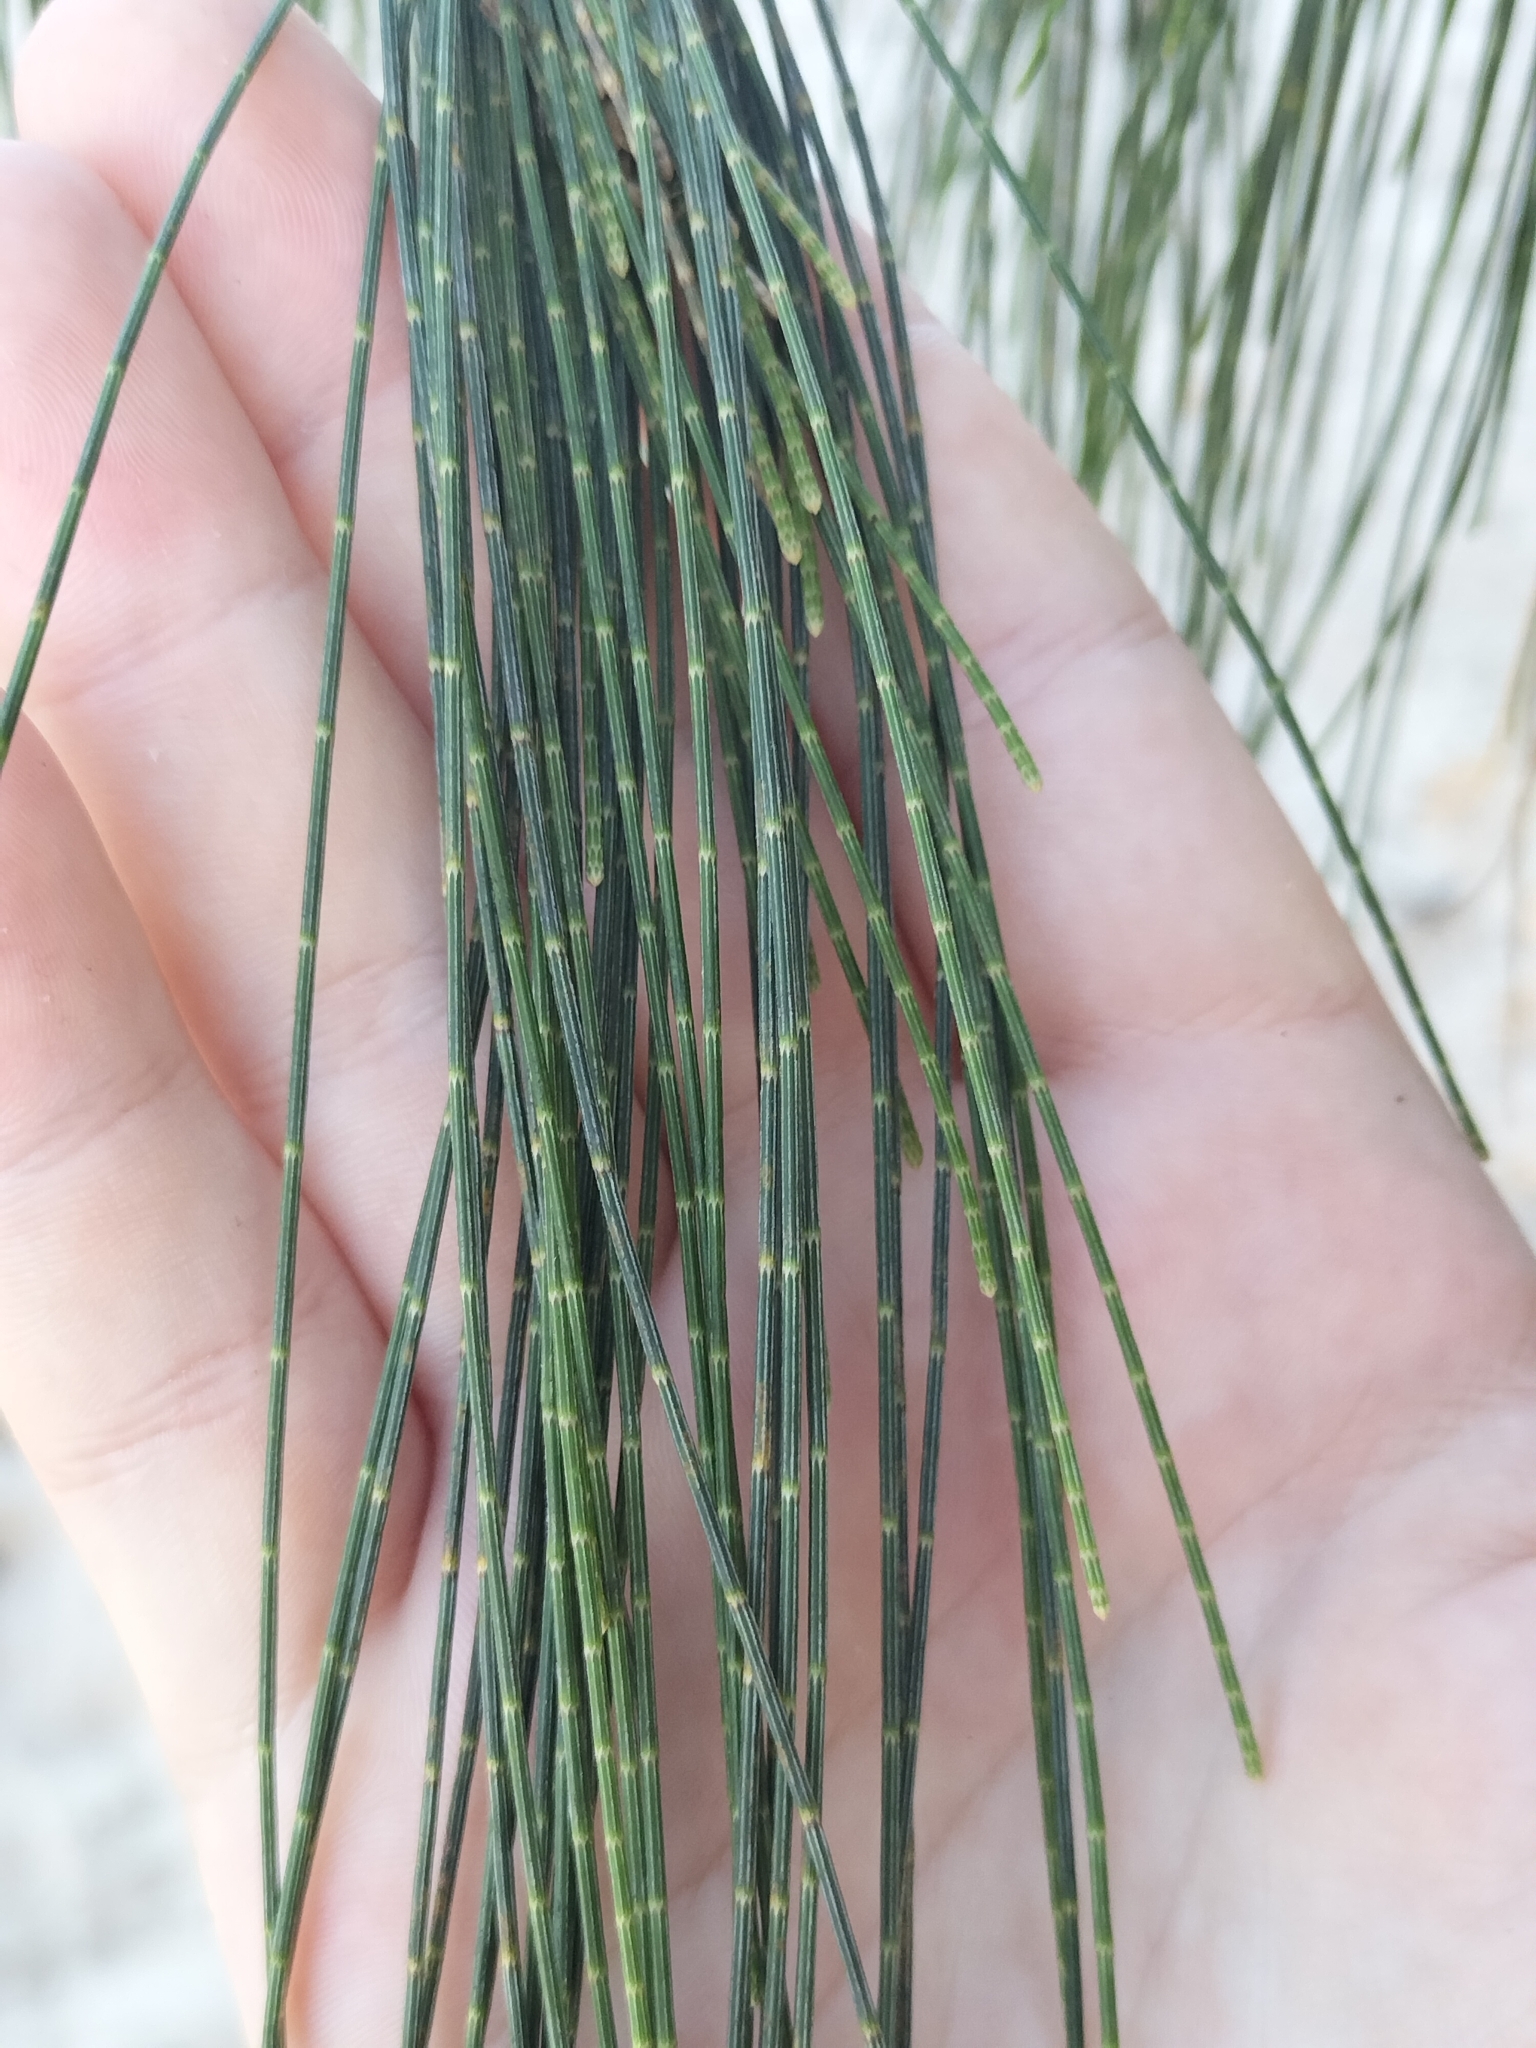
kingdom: Plantae
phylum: Tracheophyta
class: Magnoliopsida
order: Fagales
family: Casuarinaceae
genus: Casuarina
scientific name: Casuarina equisetifolia
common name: Beach sheoak
